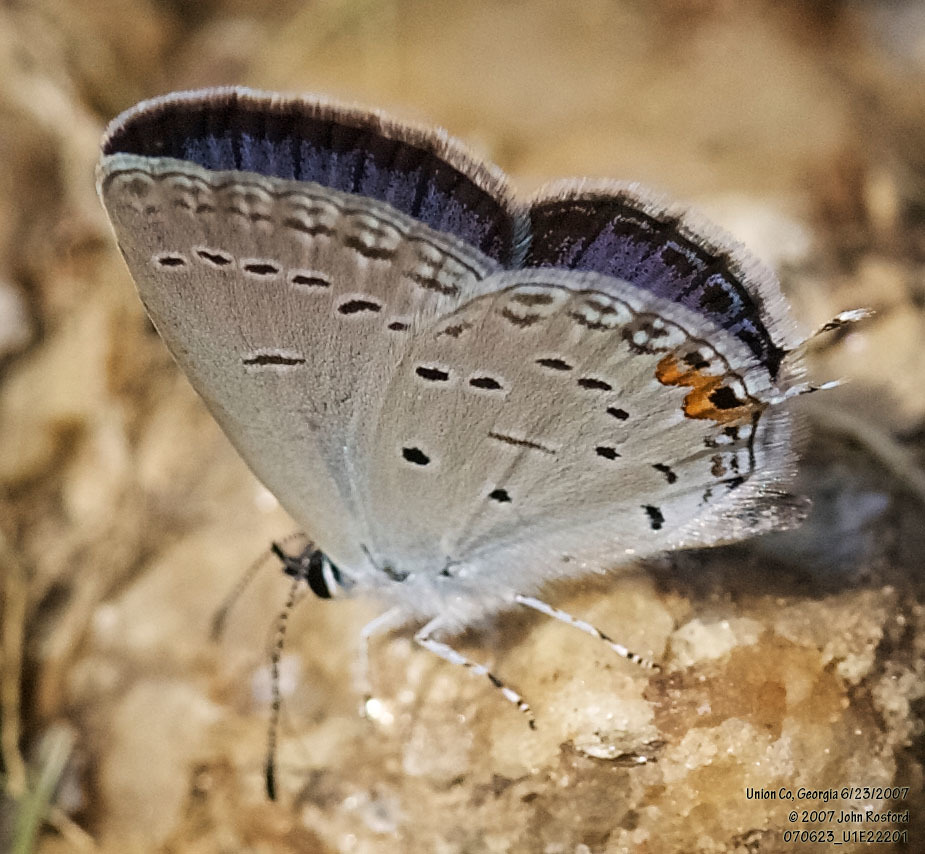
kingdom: Animalia
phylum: Arthropoda
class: Insecta
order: Lepidoptera
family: Lycaenidae
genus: Elkalyce
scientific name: Elkalyce comyntas
